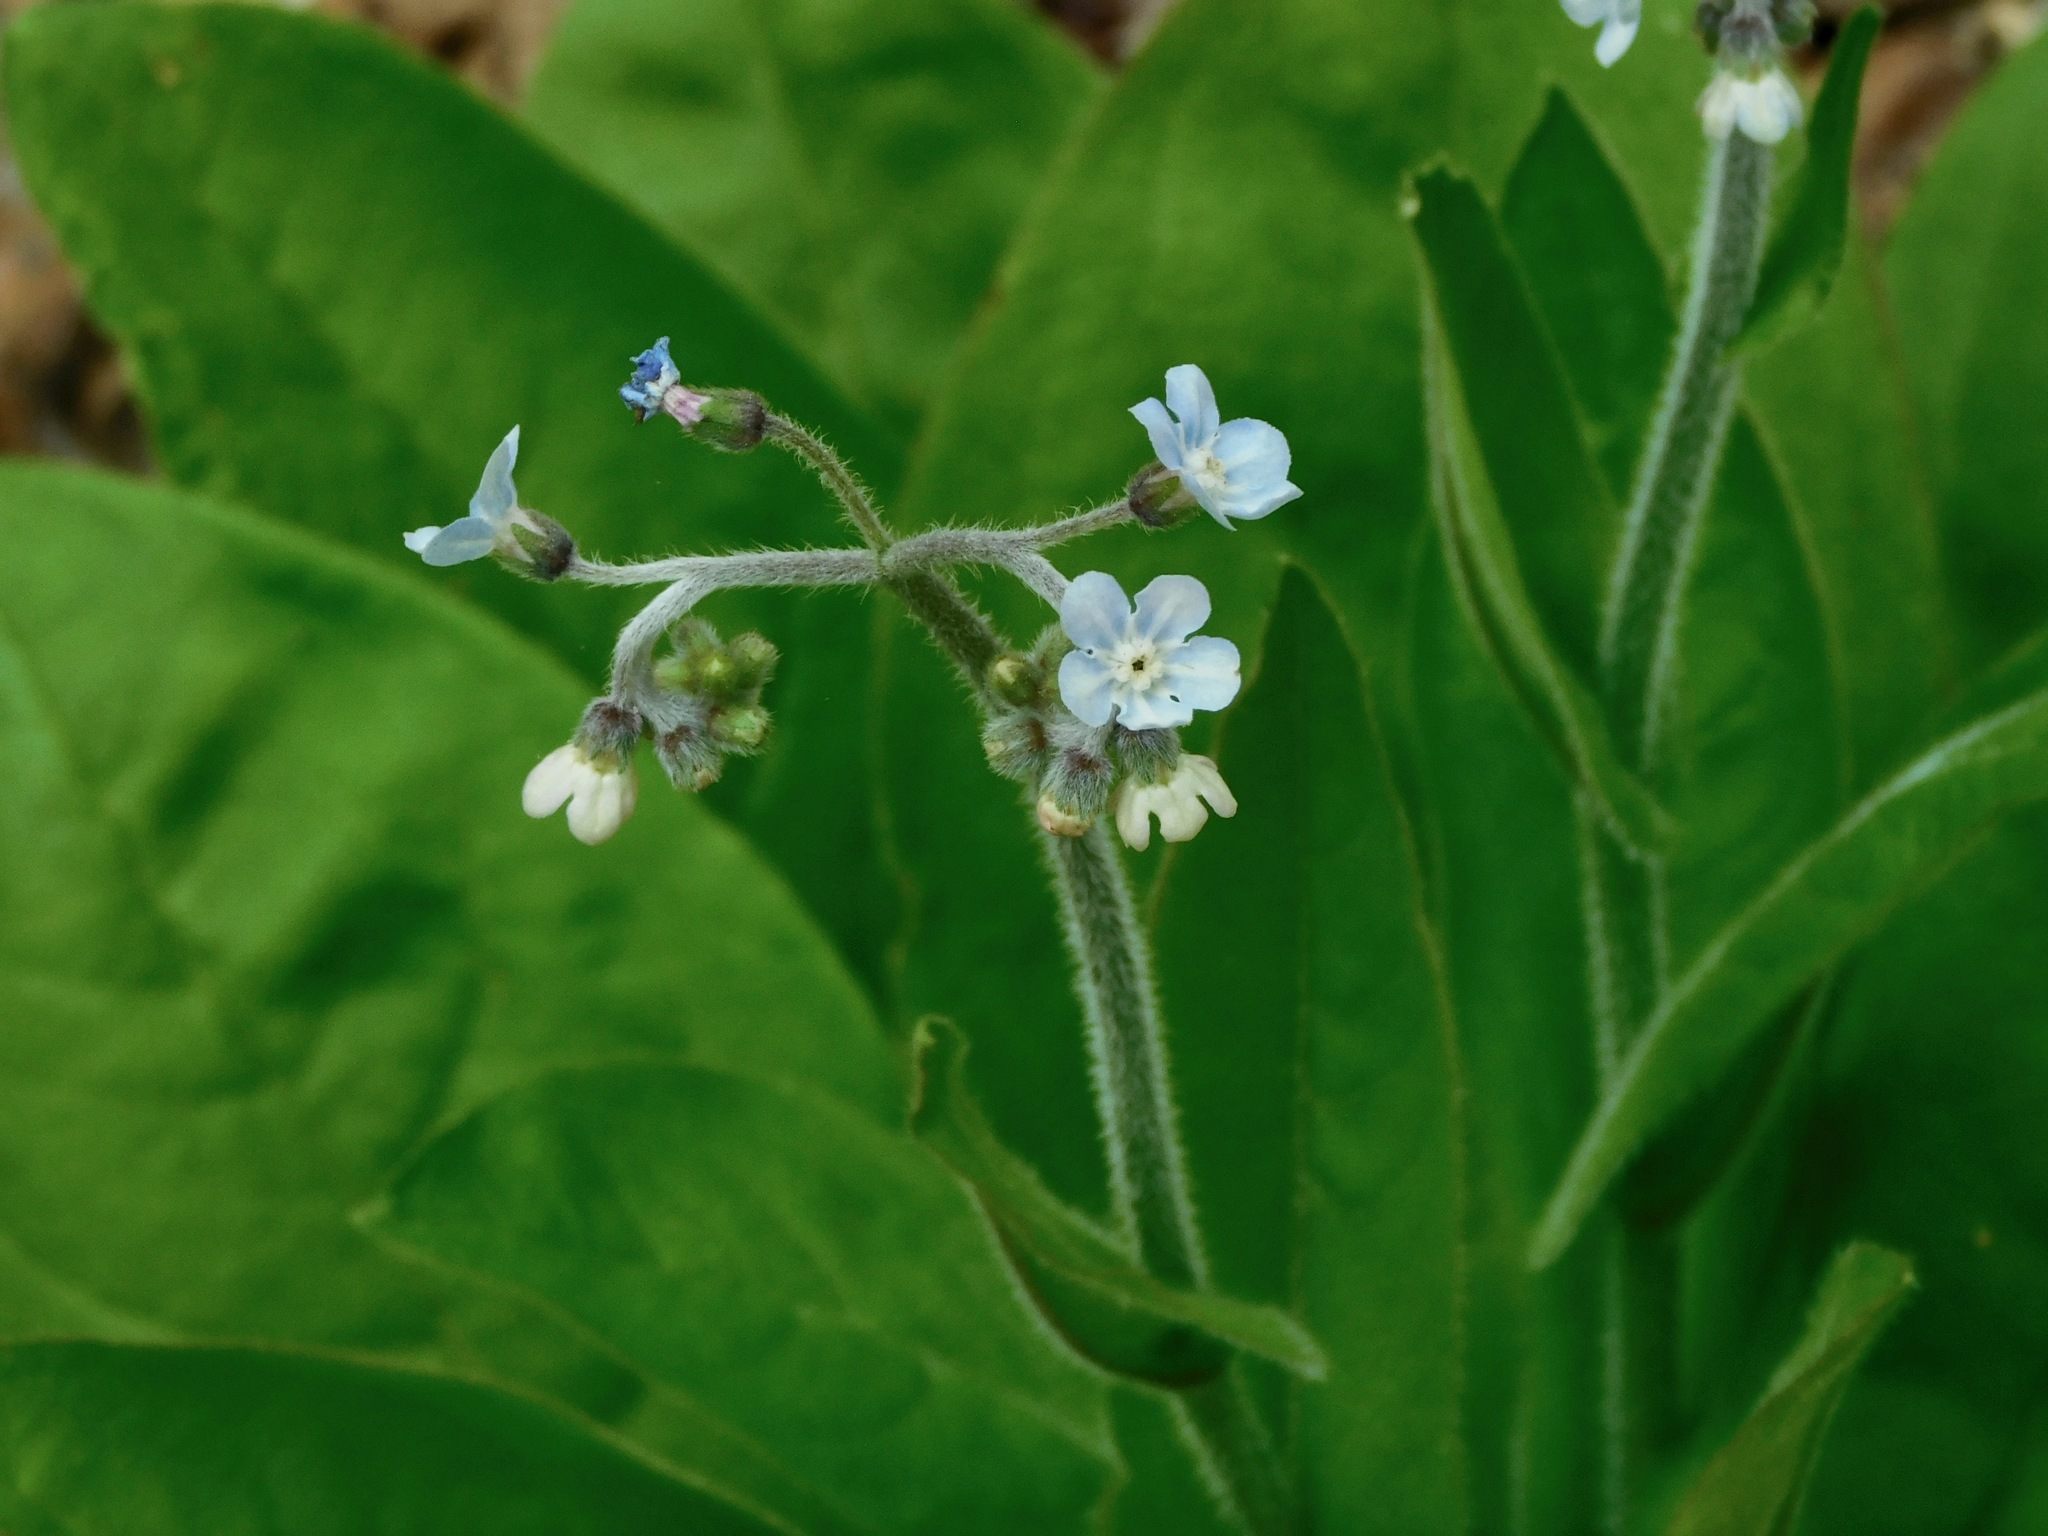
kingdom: Plantae
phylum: Tracheophyta
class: Magnoliopsida
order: Boraginales
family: Boraginaceae
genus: Andersonglossum
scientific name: Andersonglossum virginianum
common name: Wild comfrey
